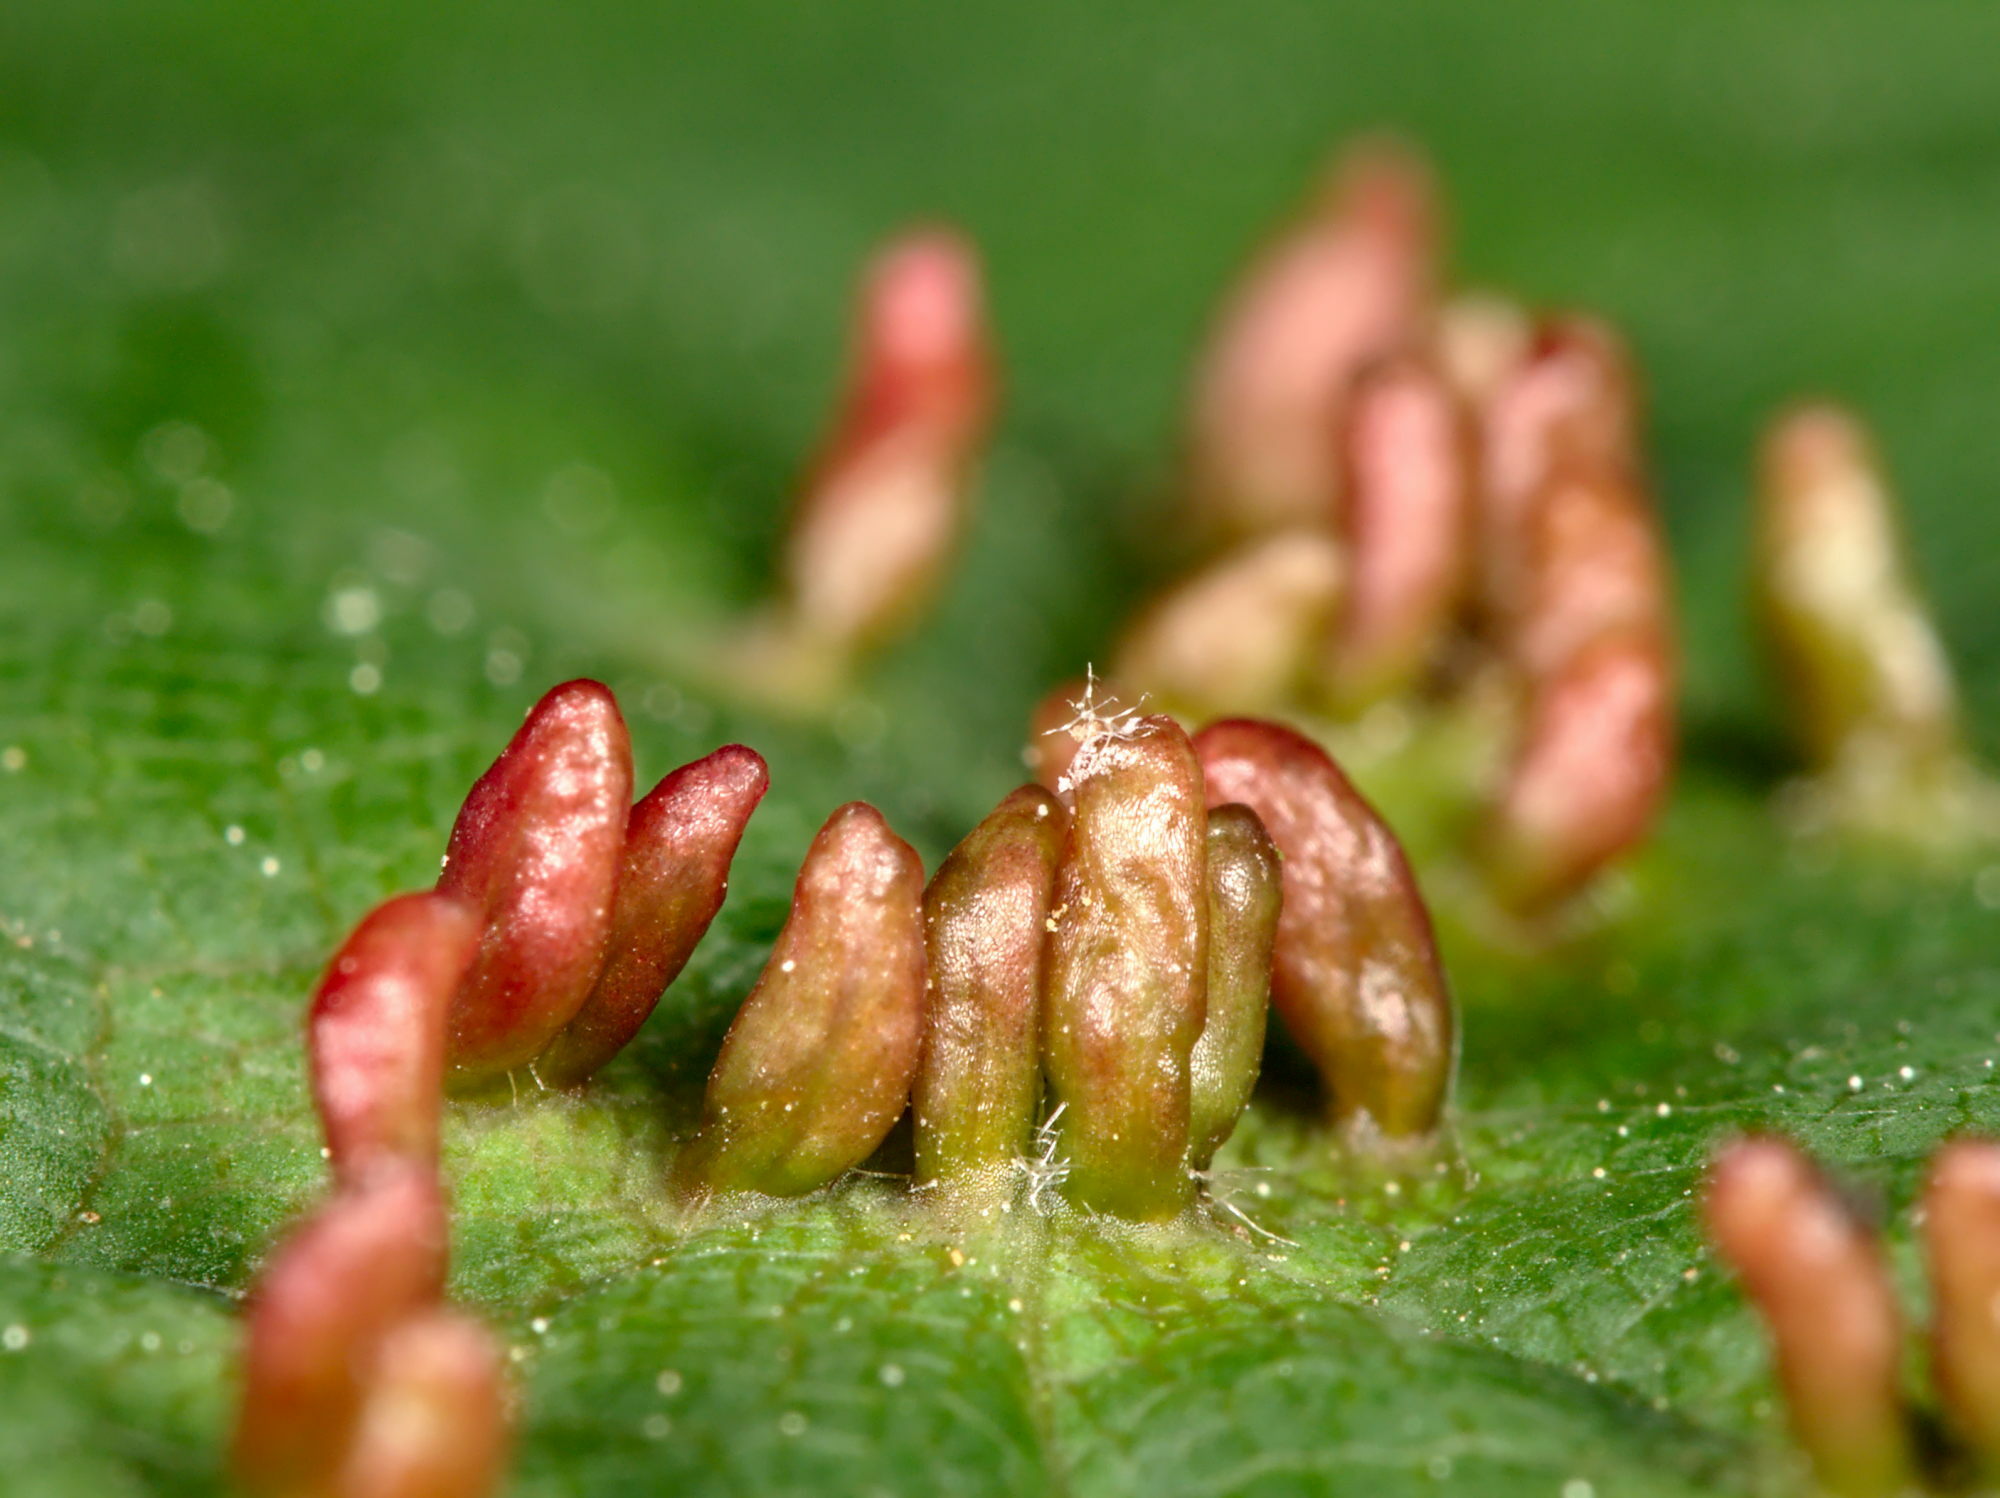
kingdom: Animalia
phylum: Arthropoda
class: Arachnida
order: Trombidiformes
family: Eriophyidae
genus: Aceria
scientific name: Aceria cephaloneus
